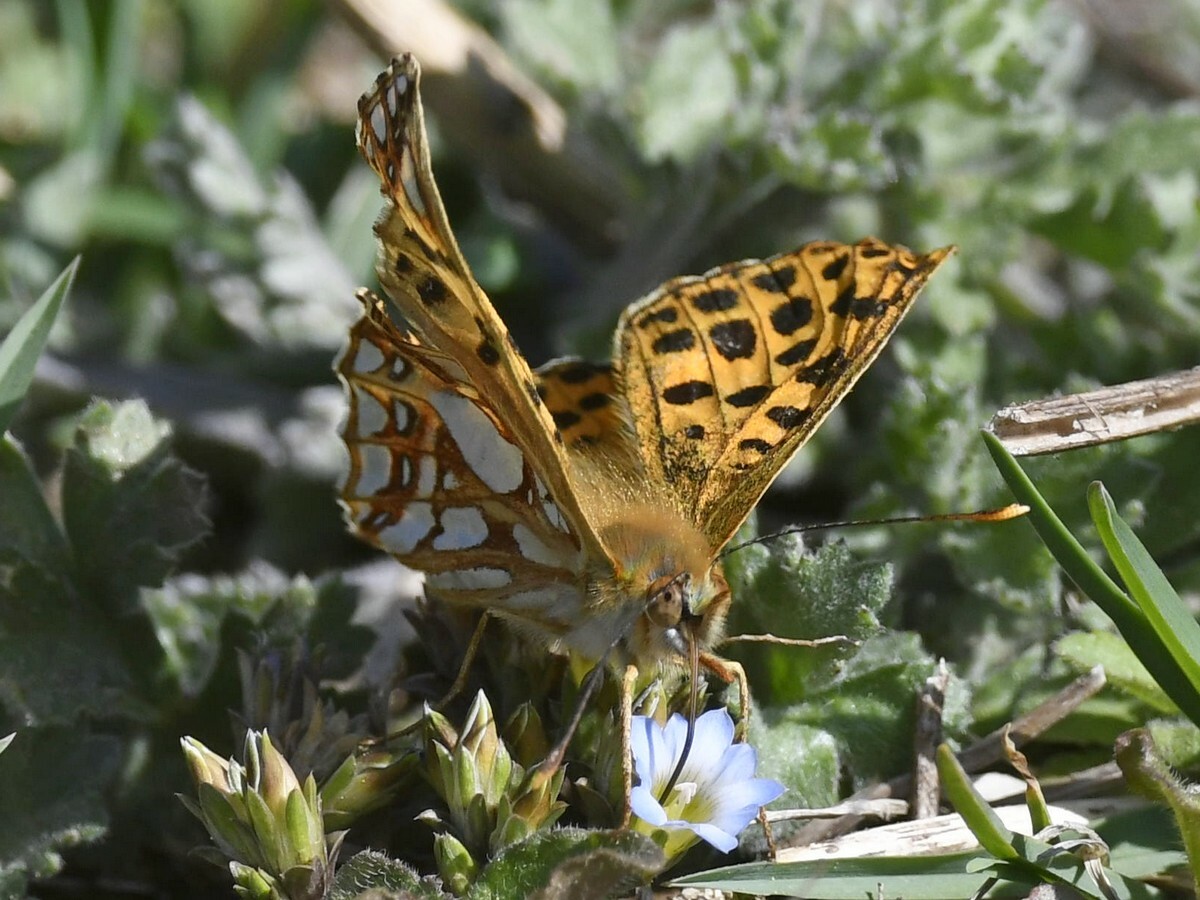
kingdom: Animalia
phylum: Arthropoda
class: Insecta
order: Lepidoptera
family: Nymphalidae
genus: Issoria
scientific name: Issoria
